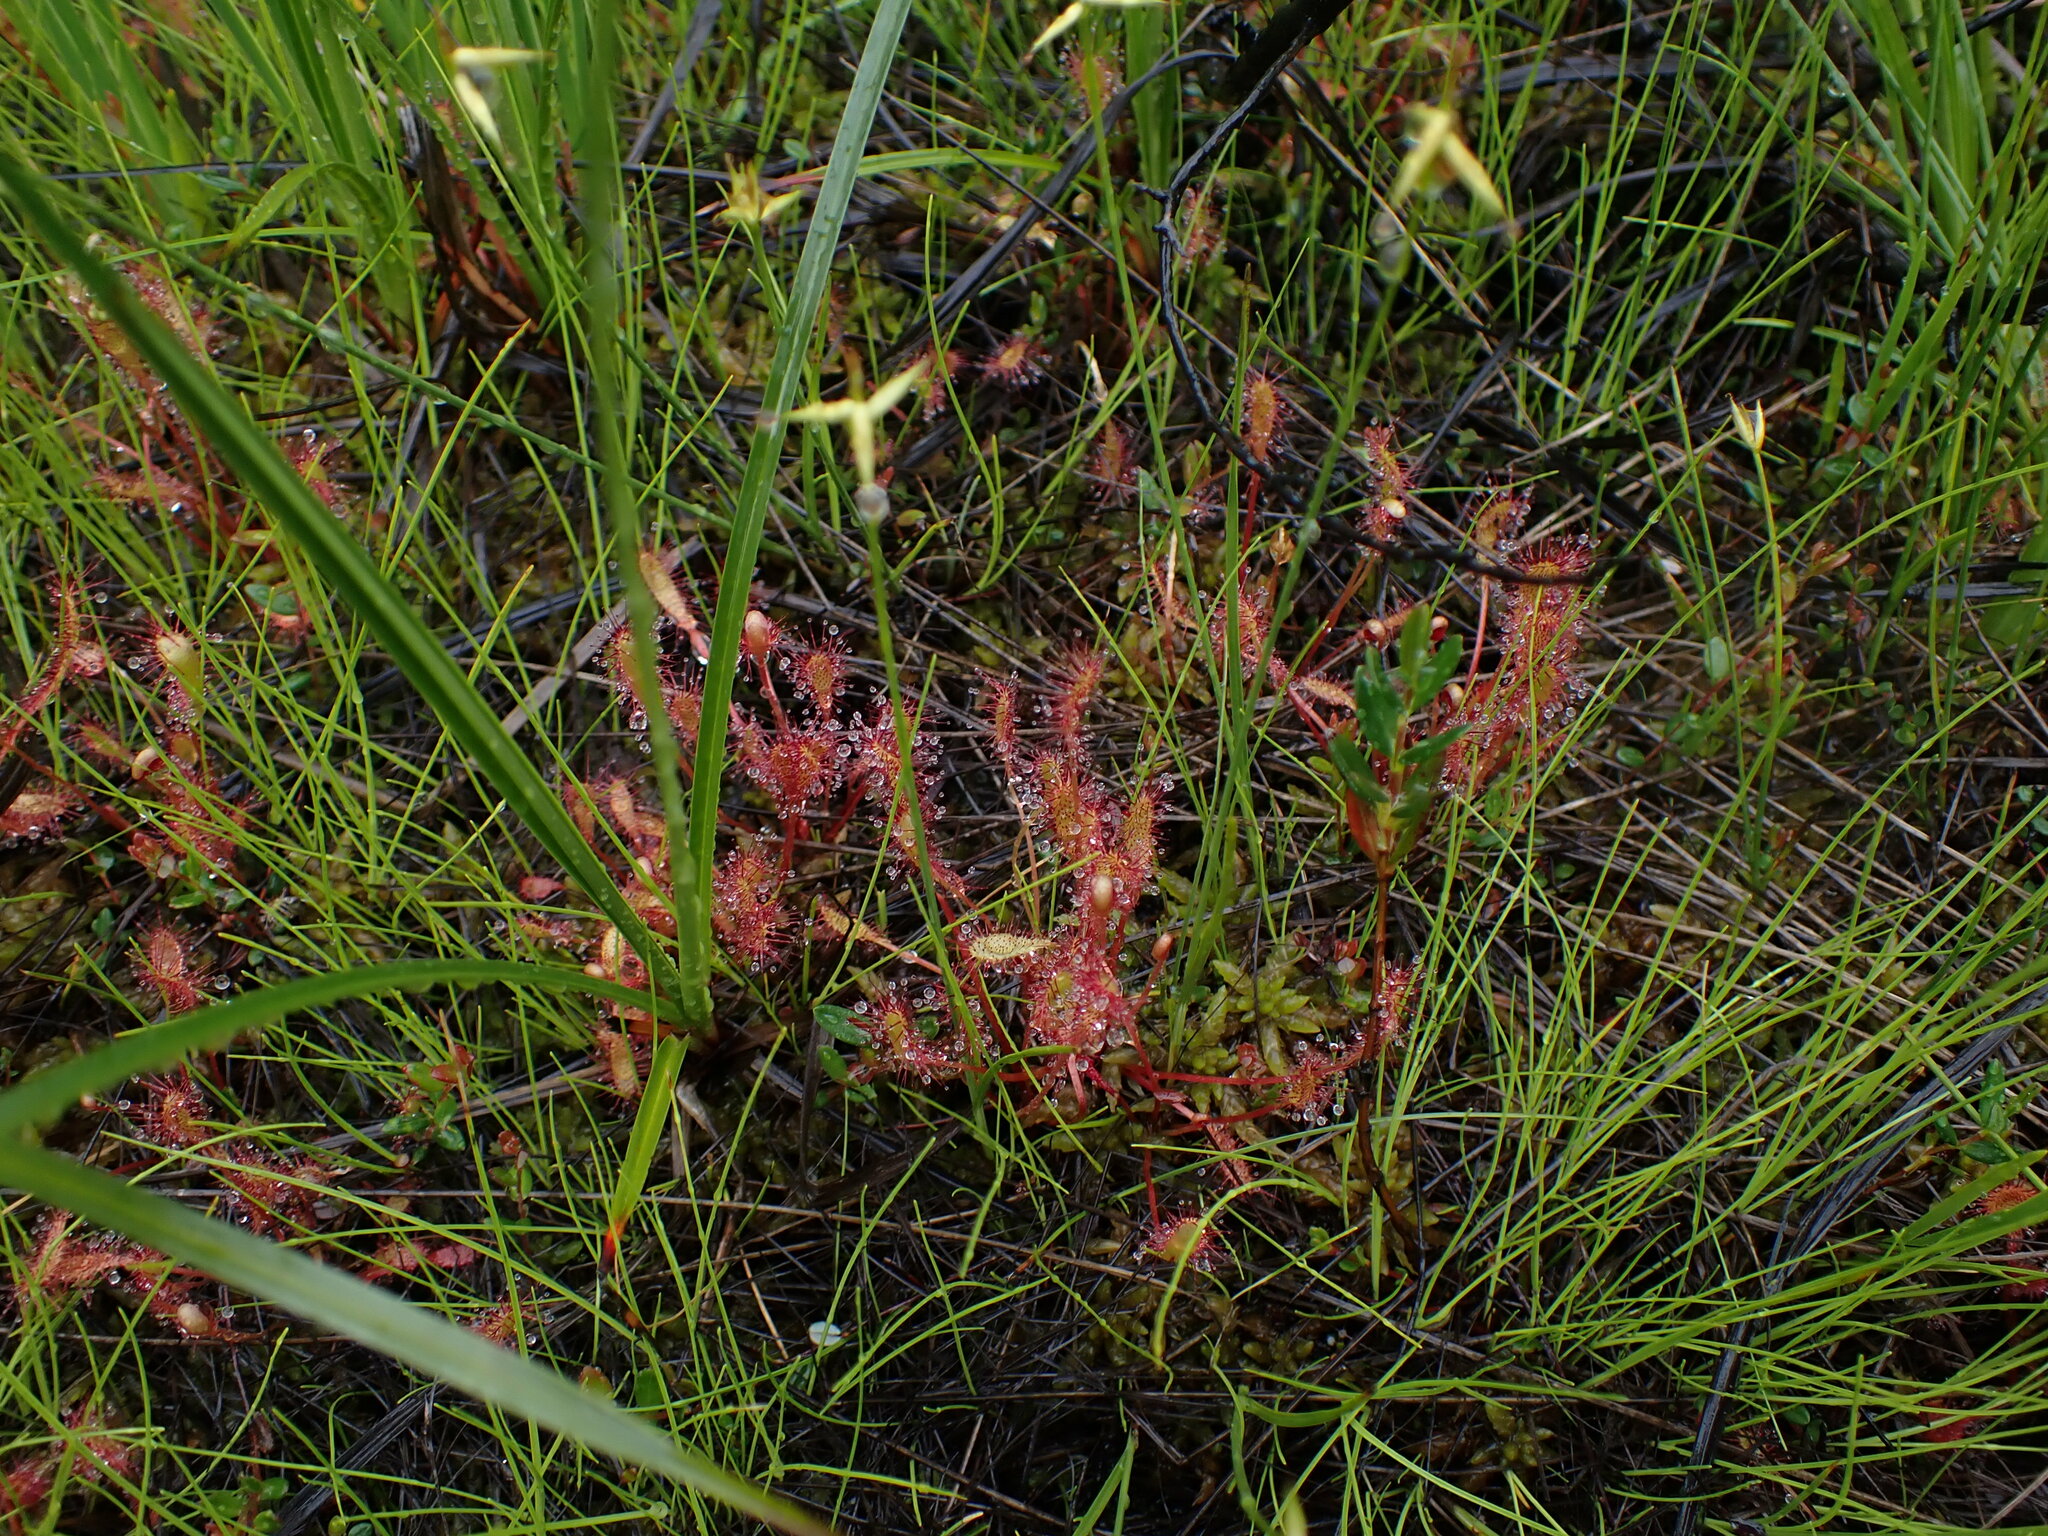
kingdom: Plantae
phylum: Tracheophyta
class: Magnoliopsida
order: Caryophyllales
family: Droseraceae
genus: Drosera
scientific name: Drosera anglica
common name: Great sundew
